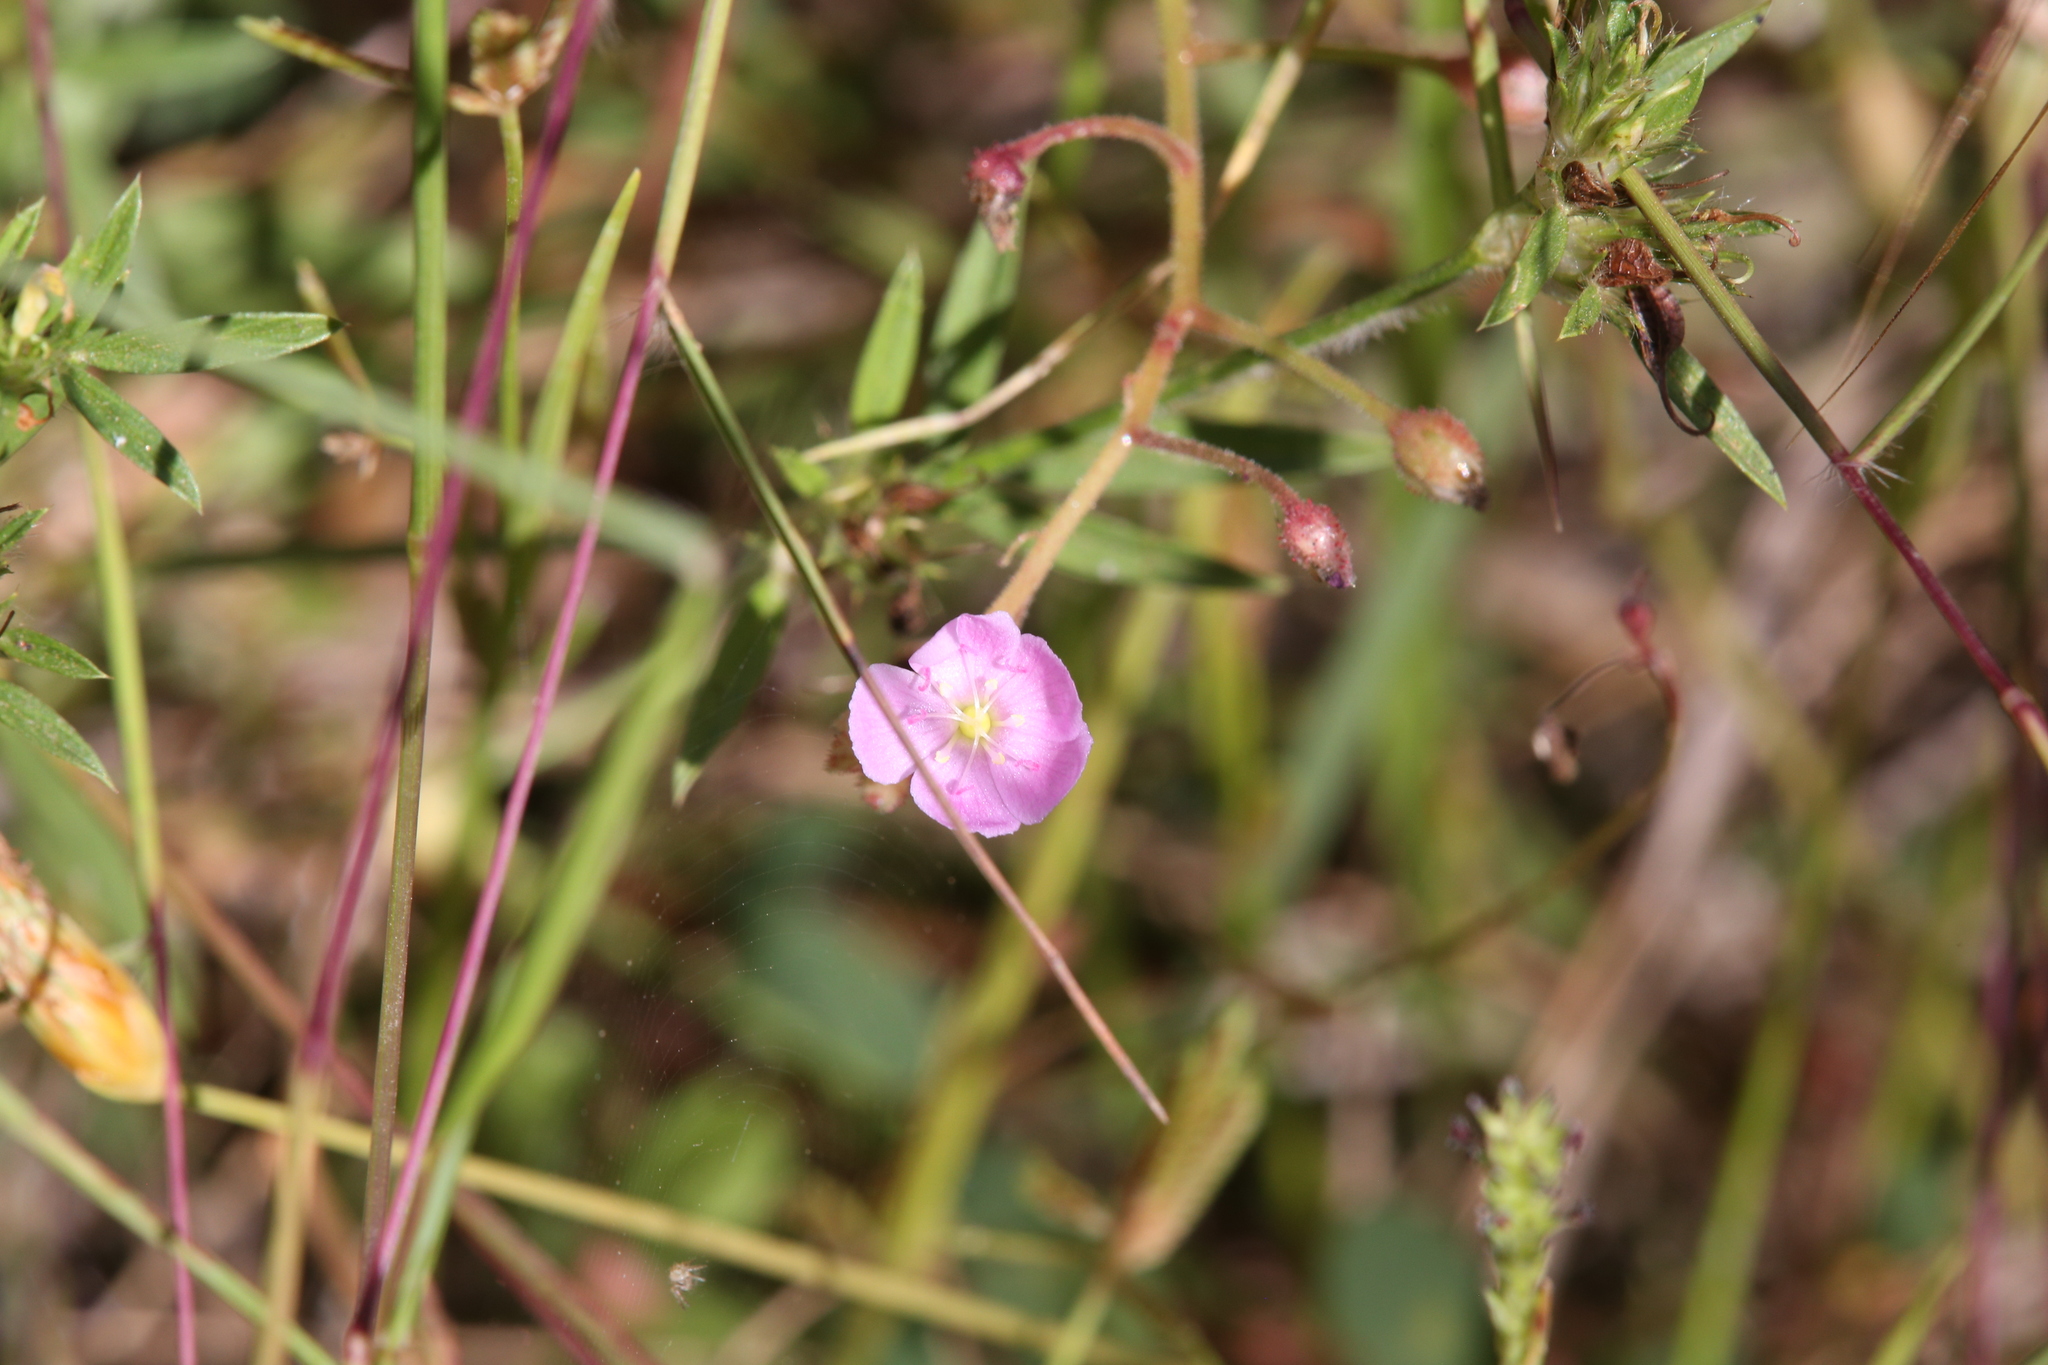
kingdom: Plantae
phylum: Tracheophyta
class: Magnoliopsida
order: Caryophyllales
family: Droseraceae
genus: Drosera
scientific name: Drosera indica
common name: Indian sundew
